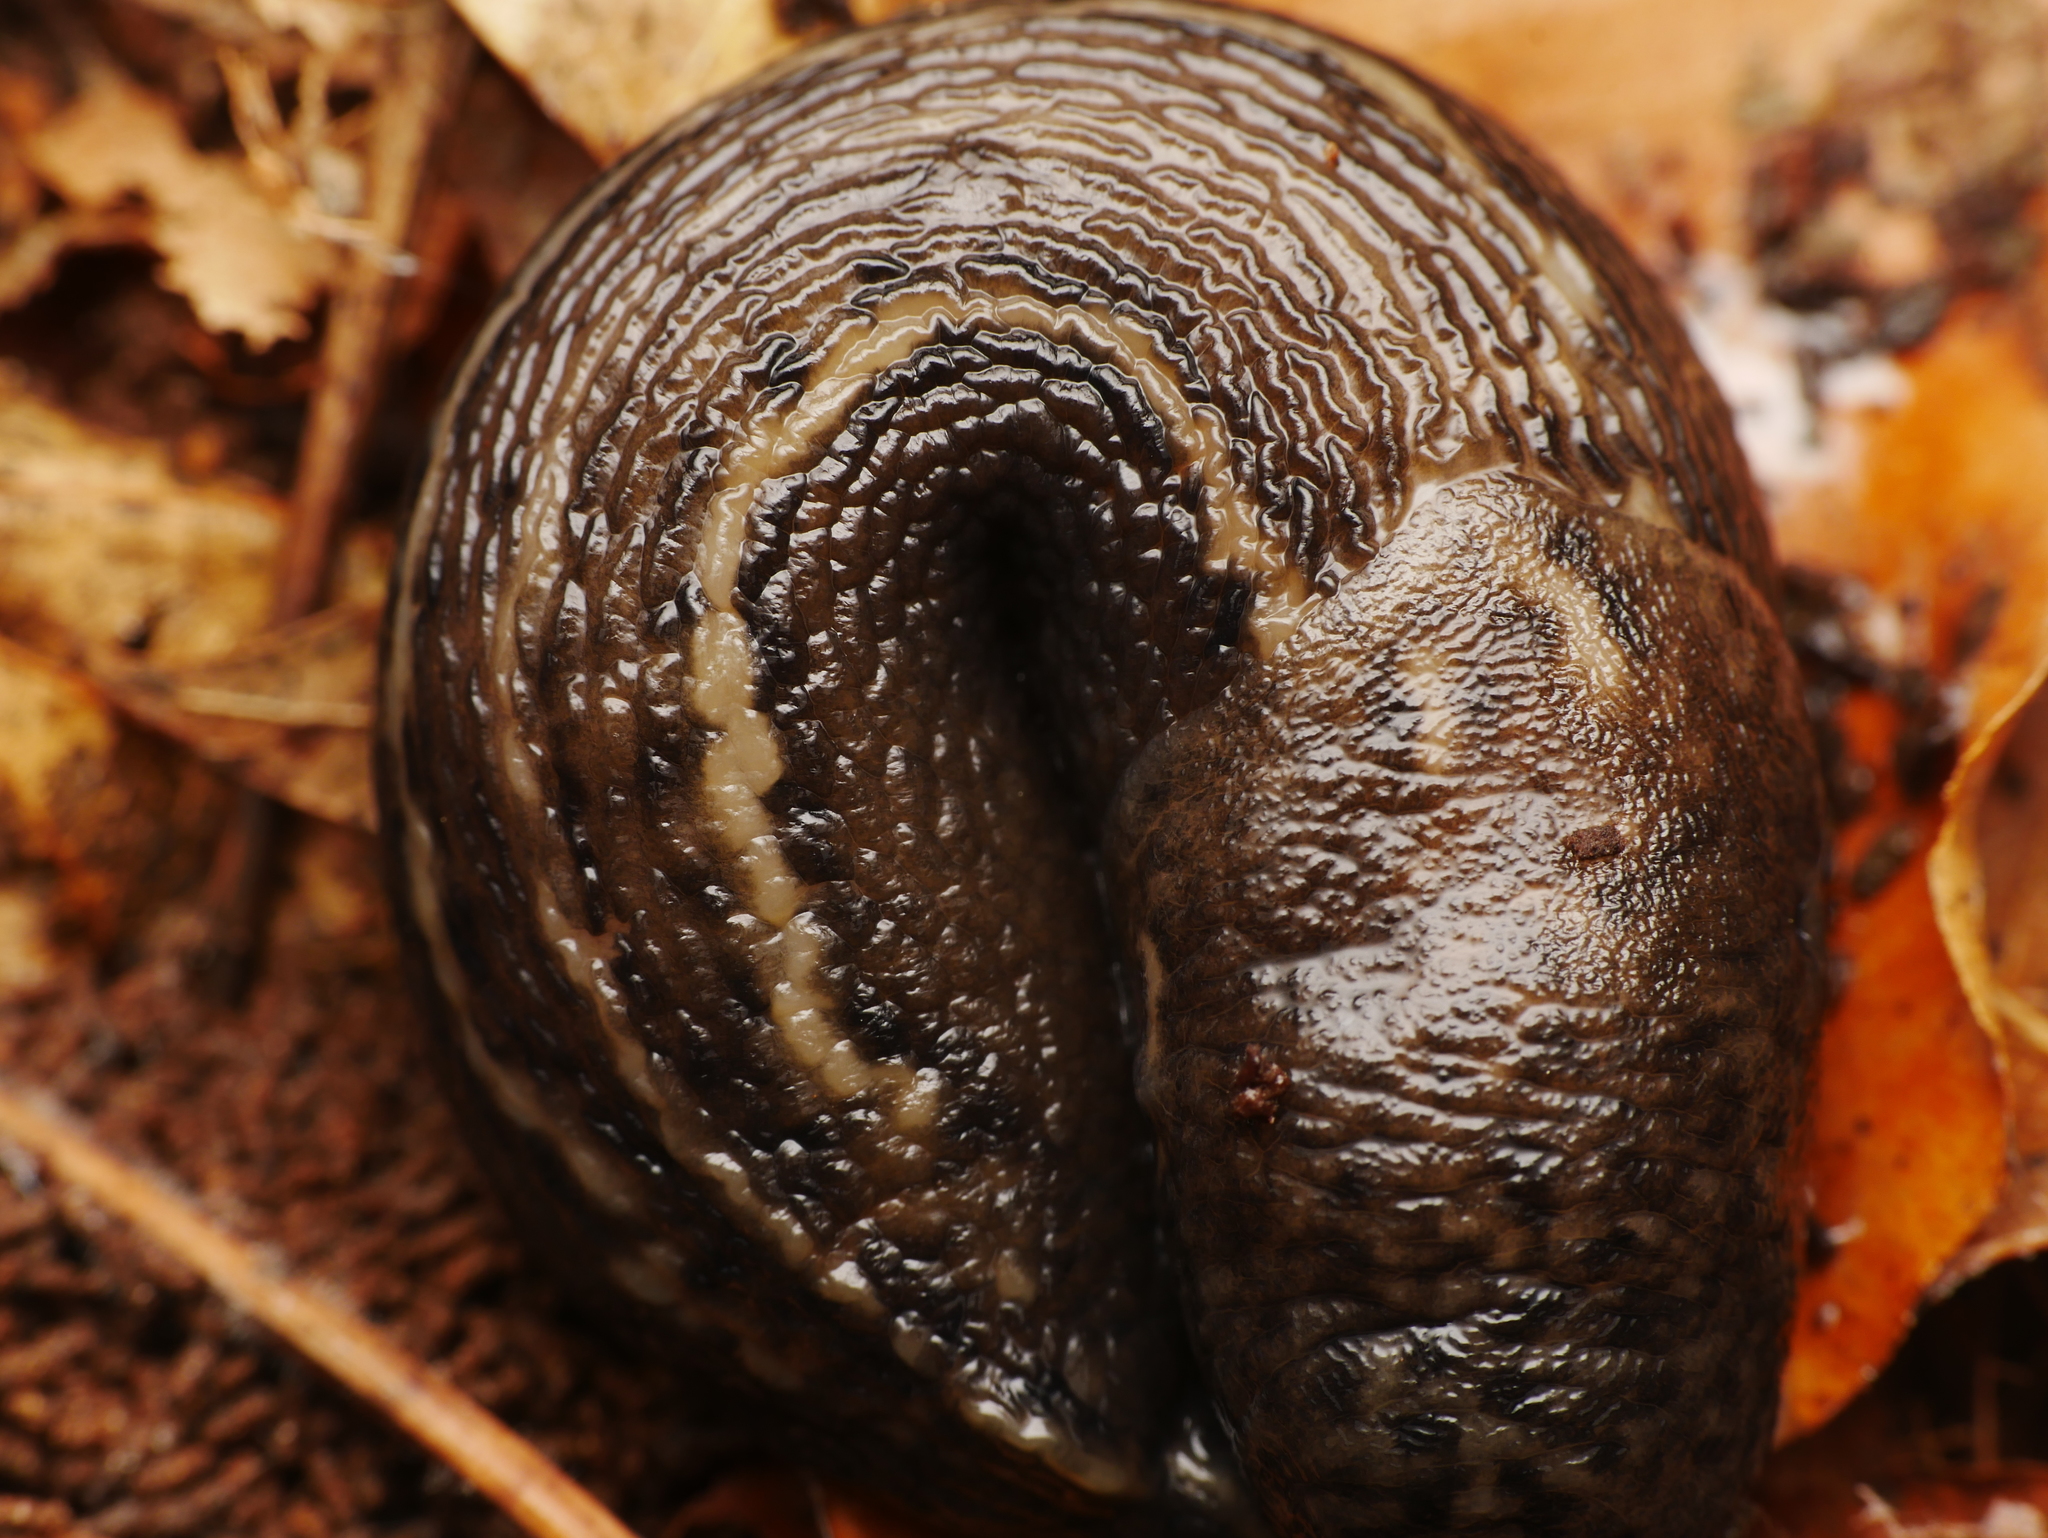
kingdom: Animalia
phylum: Mollusca
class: Gastropoda
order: Stylommatophora
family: Limacidae
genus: Limax
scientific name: Limax maximus
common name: Great grey slug
